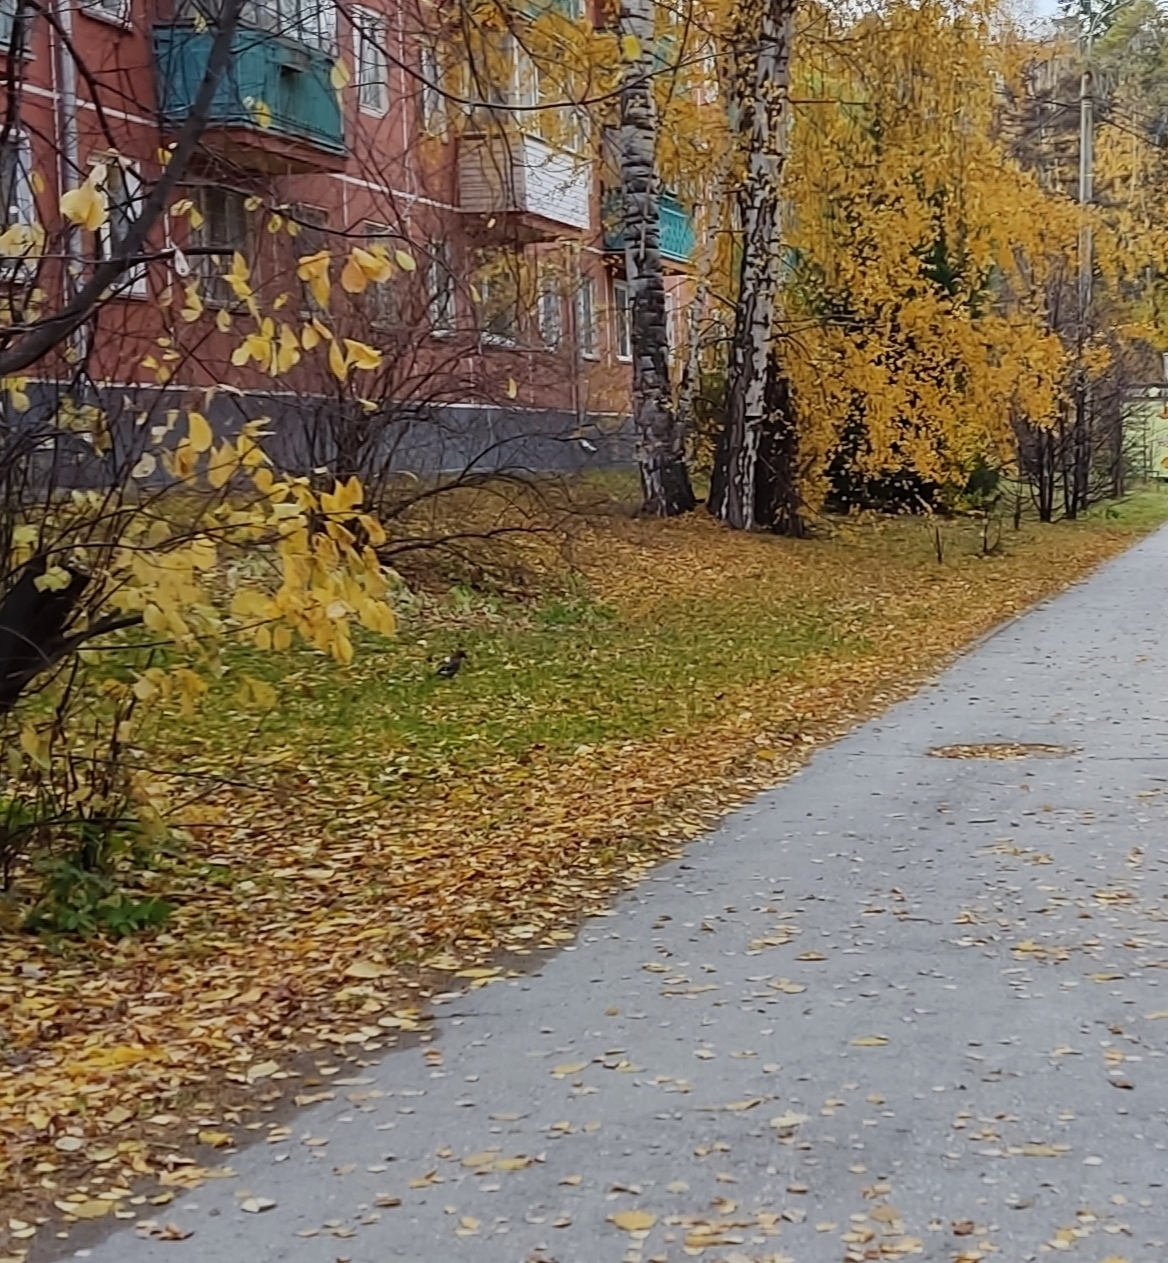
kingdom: Animalia
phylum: Chordata
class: Aves
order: Passeriformes
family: Corvidae
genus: Garrulus
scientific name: Garrulus glandarius
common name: Eurasian jay
